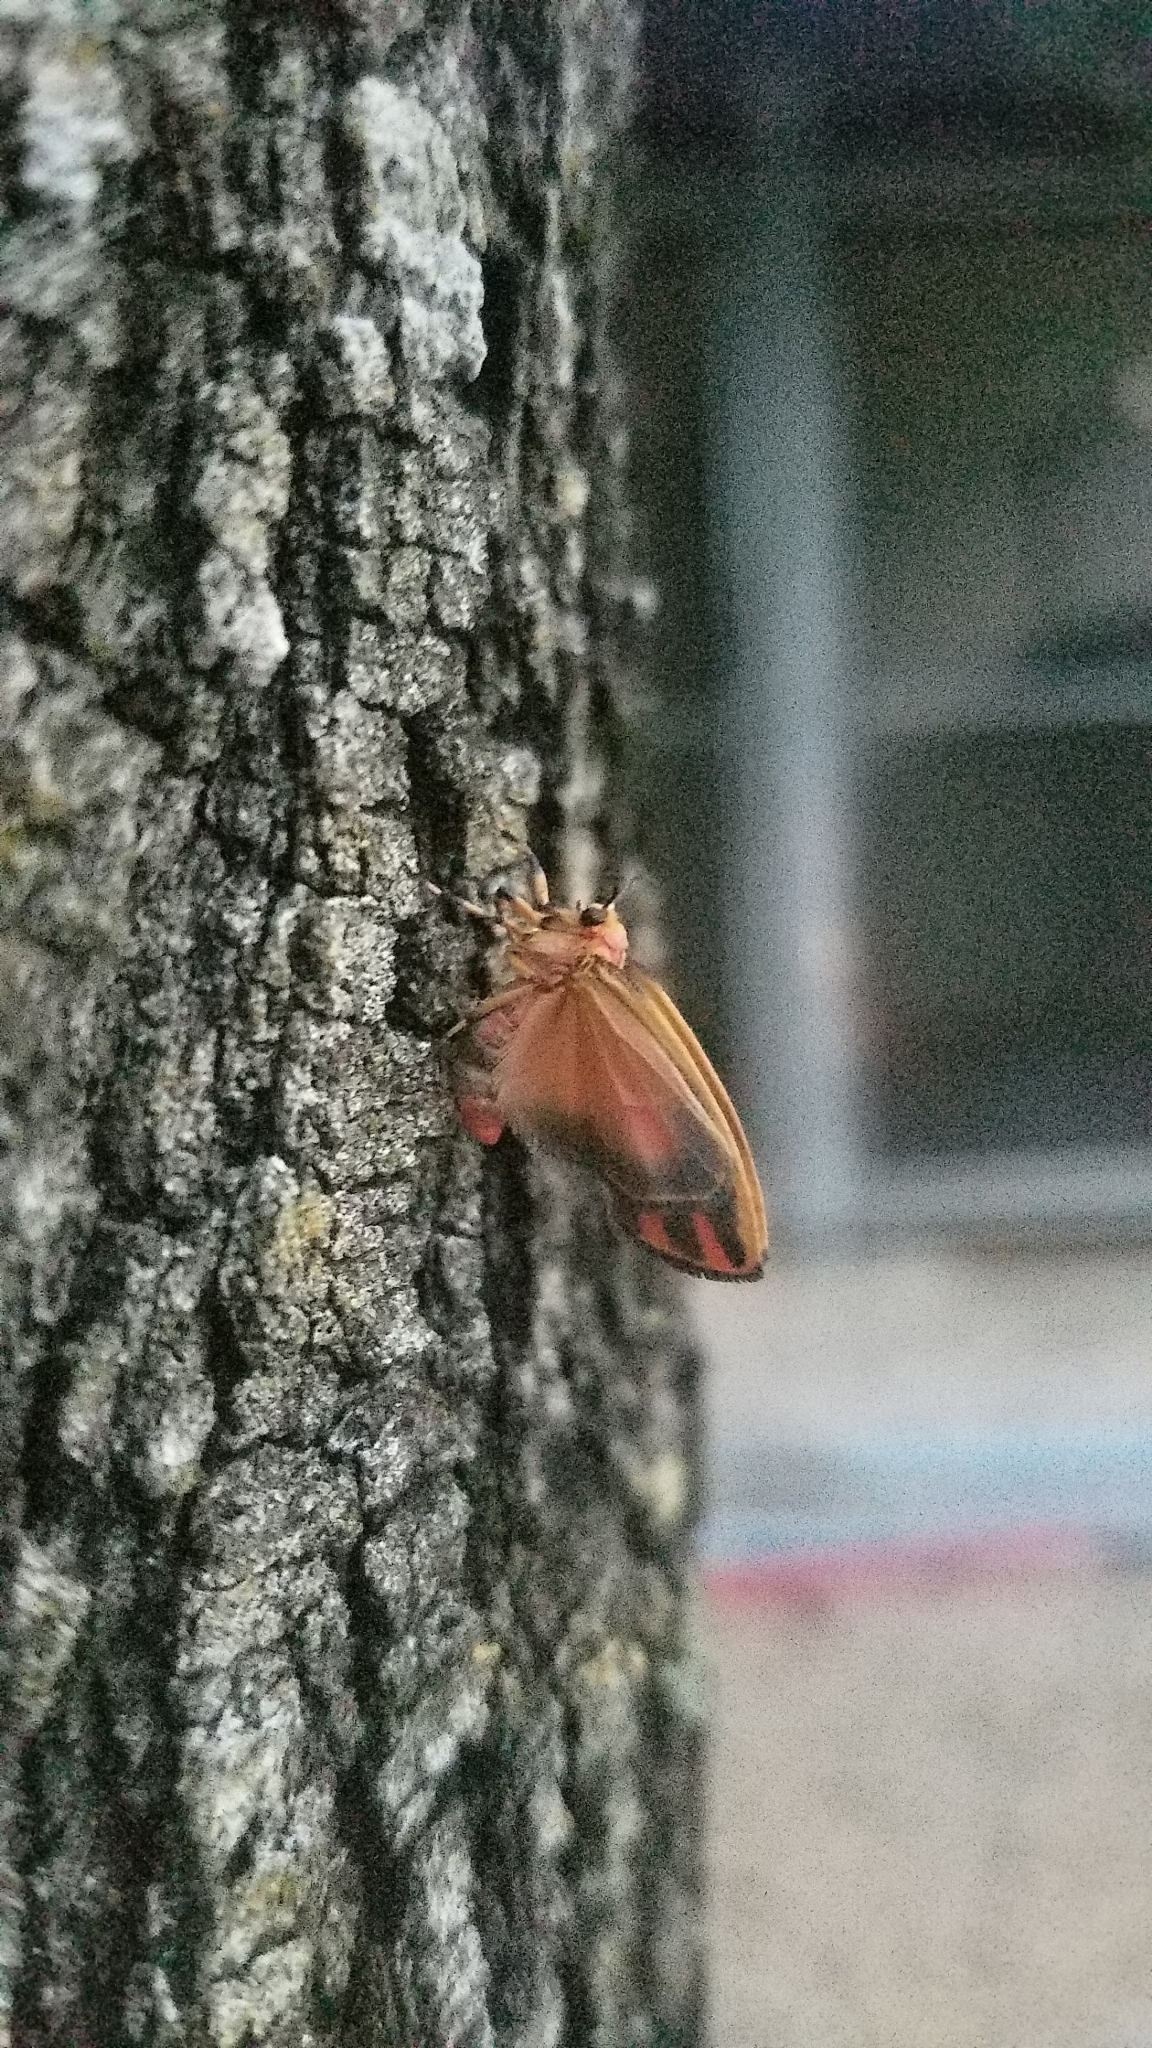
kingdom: Animalia
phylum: Arthropoda
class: Insecta
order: Lepidoptera
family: Erebidae
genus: Hypoprepia
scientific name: Hypoprepia fucosa
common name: Painted lichen moth
